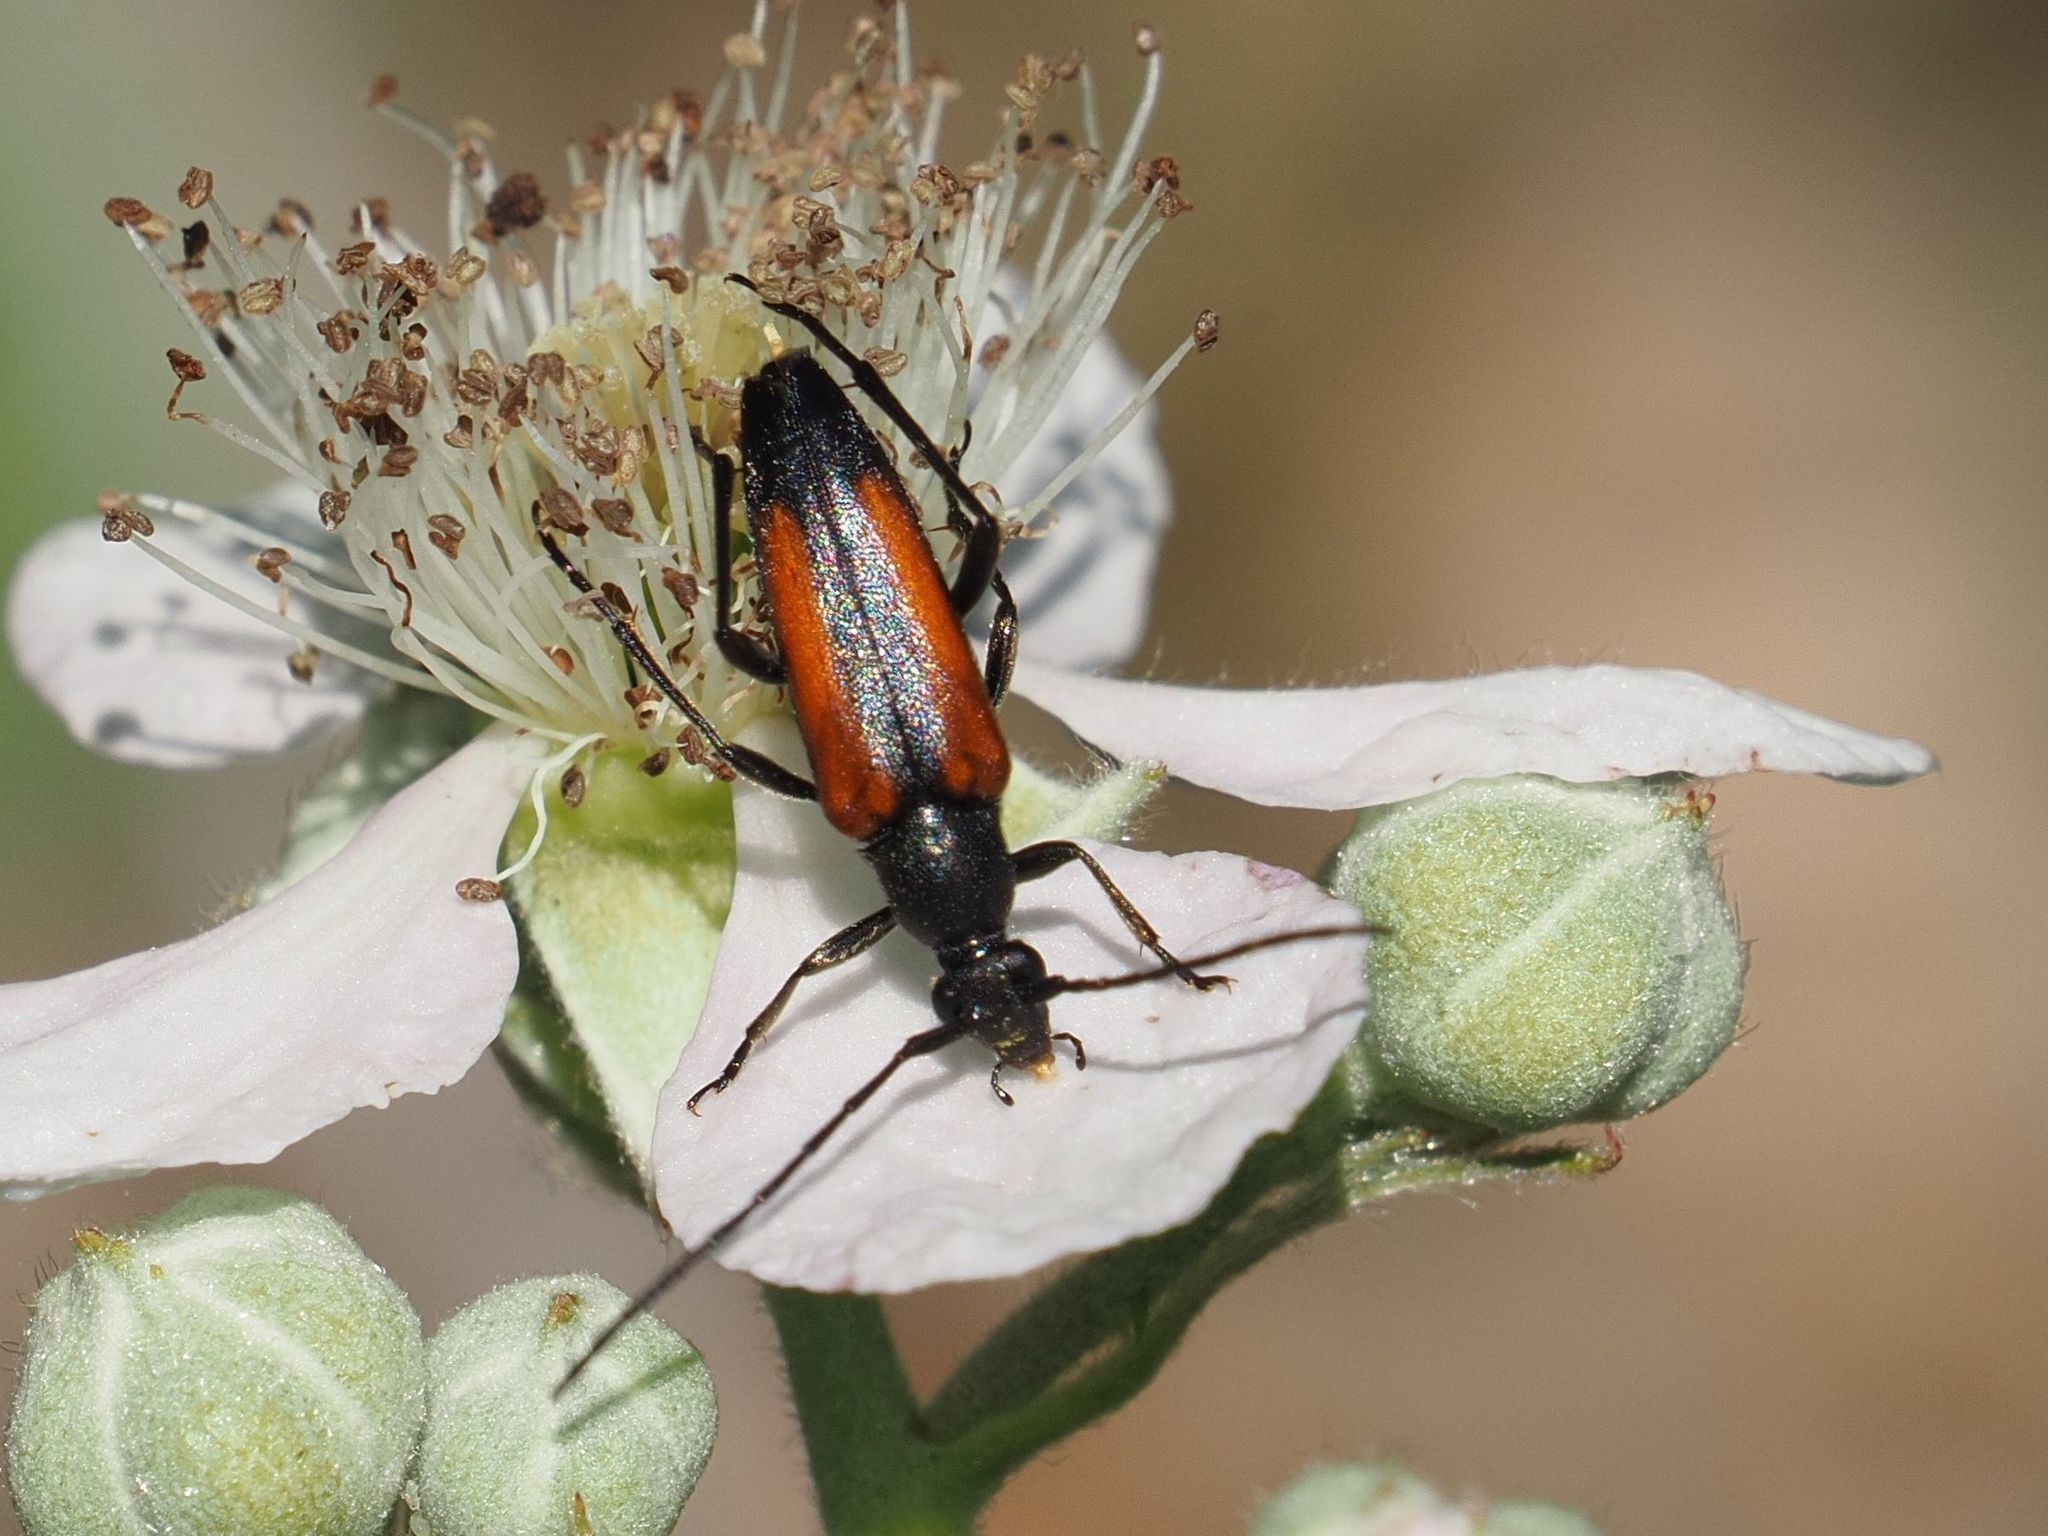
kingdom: Animalia
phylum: Arthropoda
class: Insecta
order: Coleoptera
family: Cerambycidae
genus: Stenurella
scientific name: Stenurella melanura
